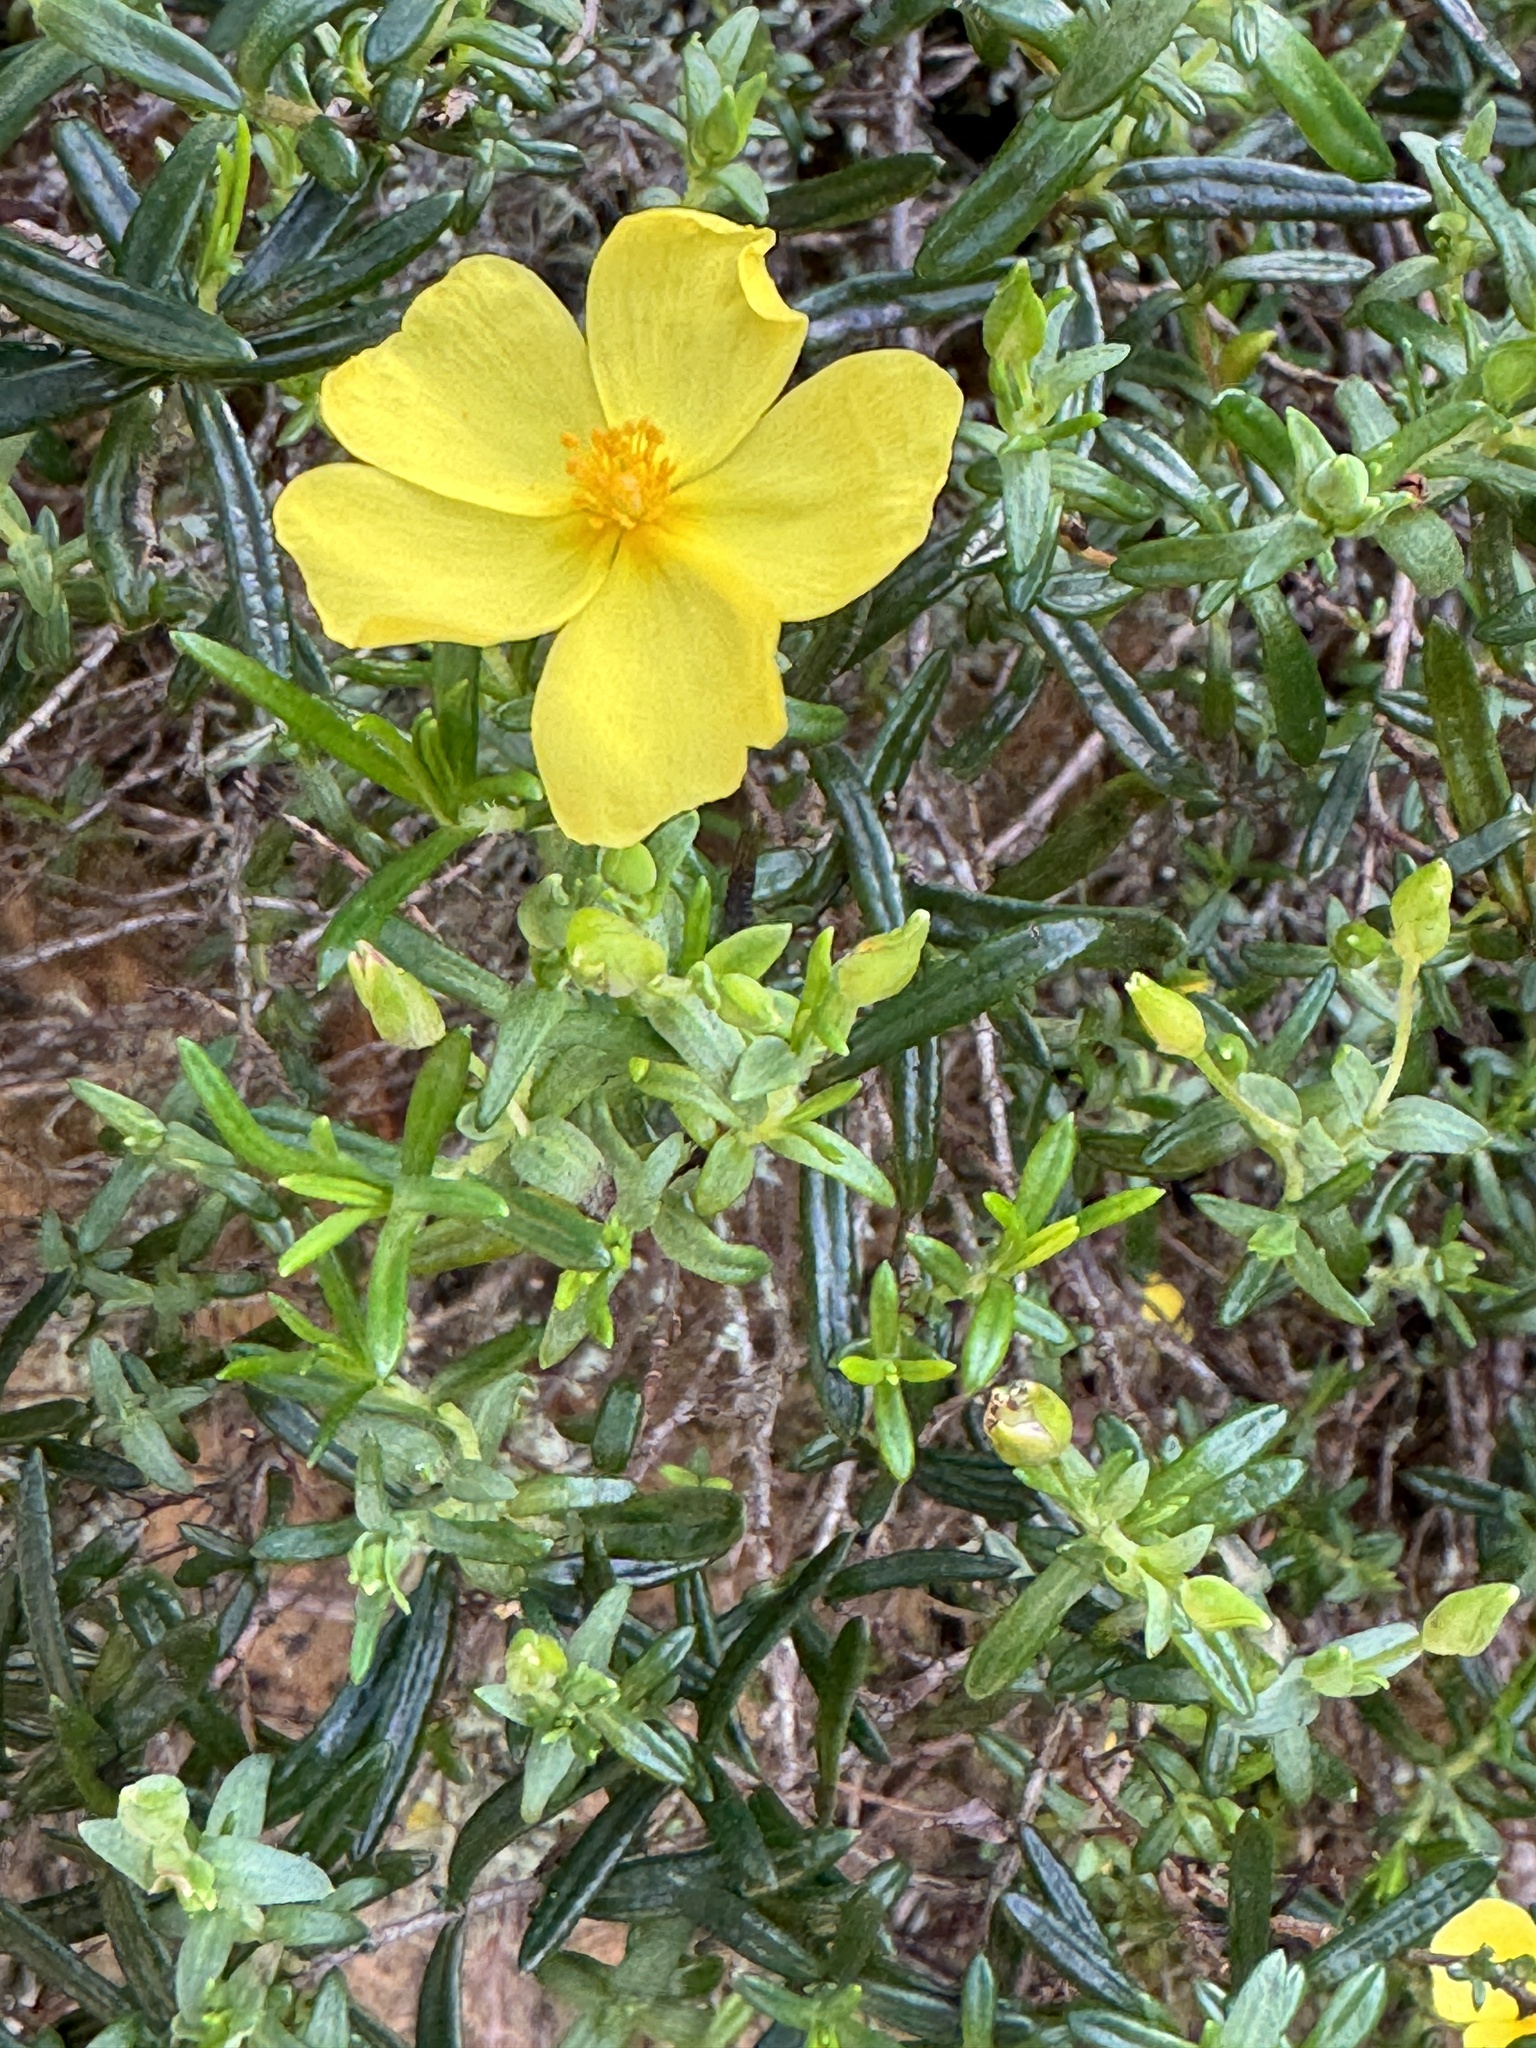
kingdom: Plantae
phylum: Tracheophyta
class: Magnoliopsida
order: Malvales
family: Cistaceae
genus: Halimium
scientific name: Halimium calycinum
